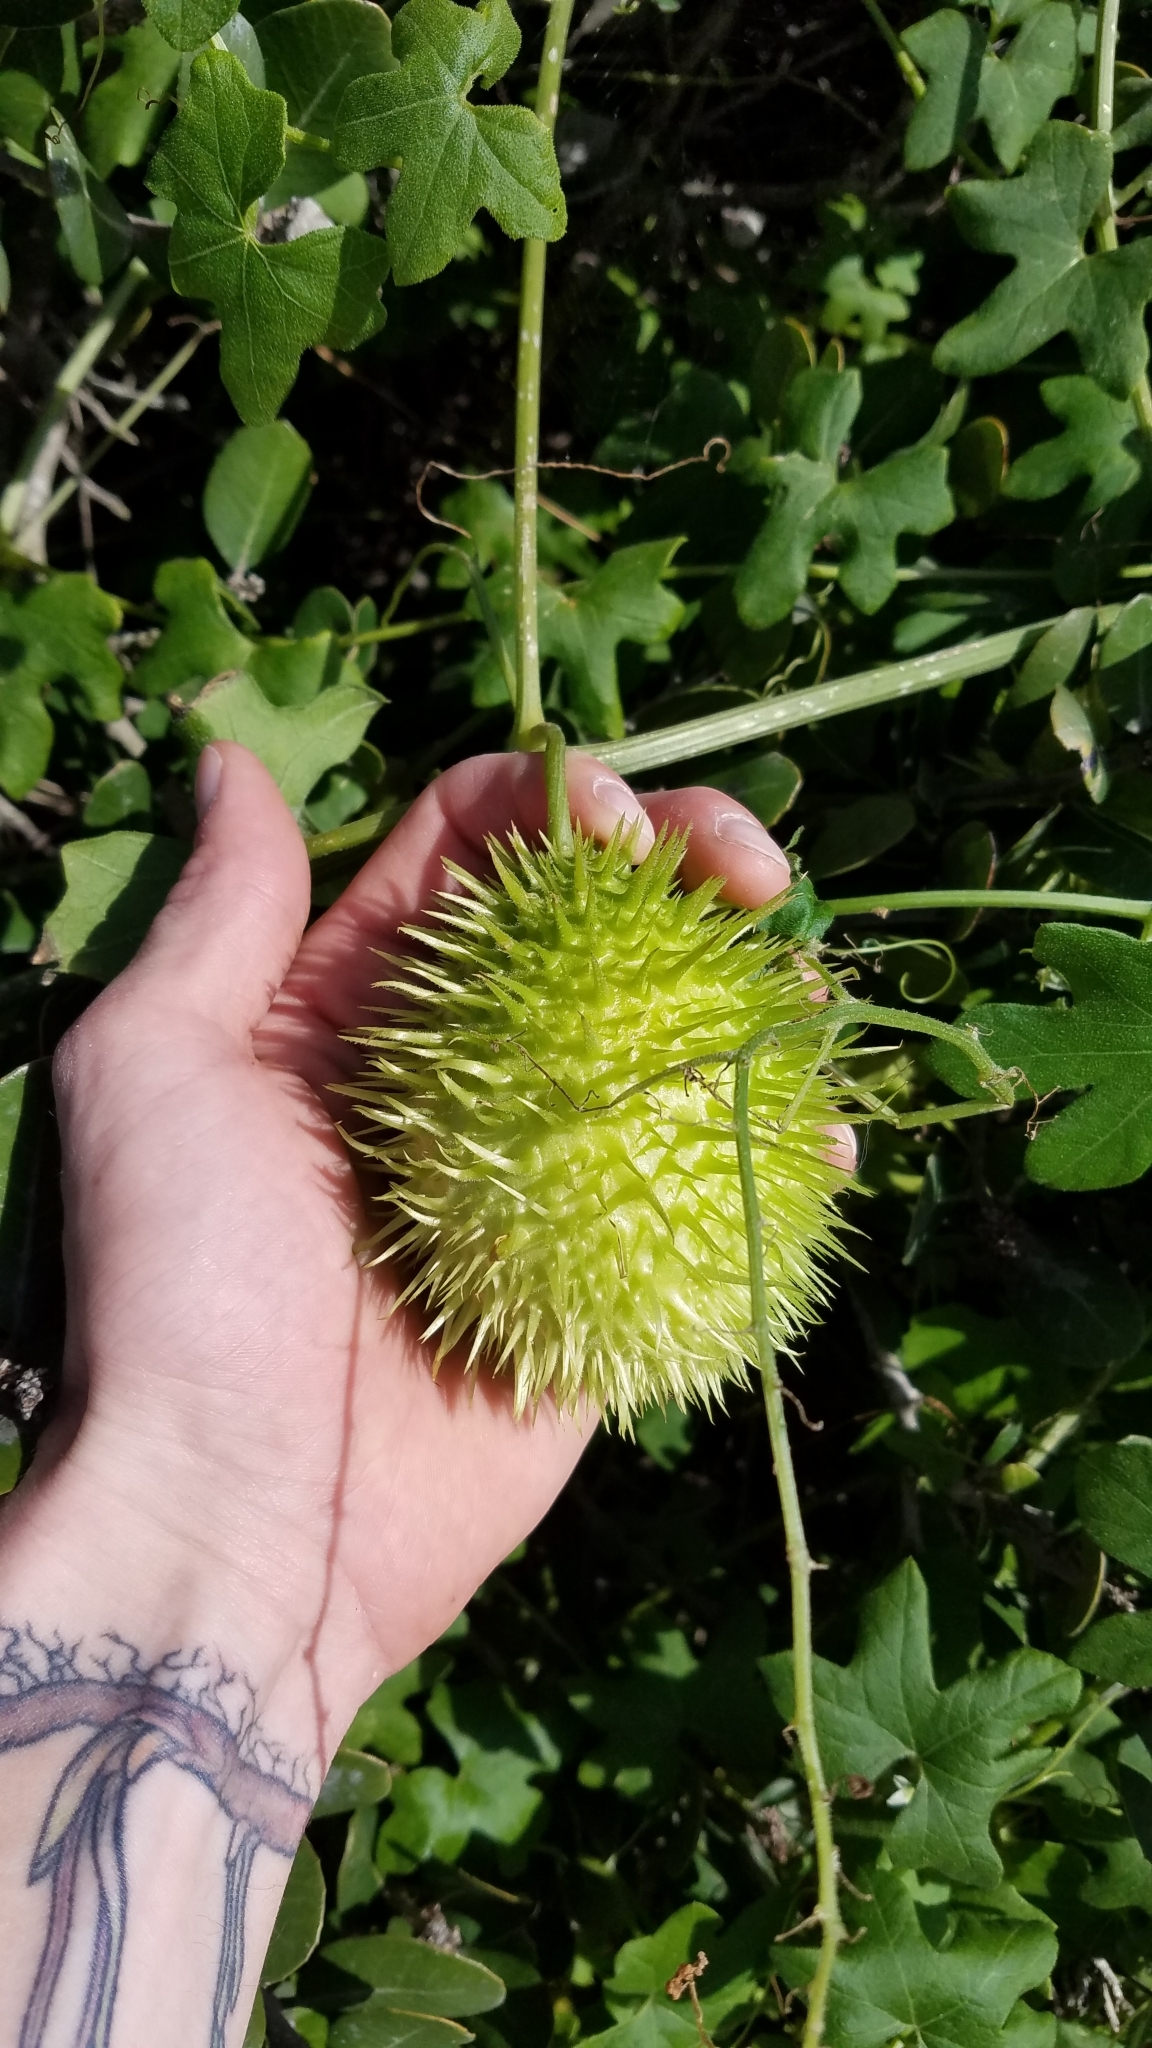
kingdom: Plantae
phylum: Tracheophyta
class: Magnoliopsida
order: Cucurbitales
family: Cucurbitaceae
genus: Marah
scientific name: Marah macrocarpa
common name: Cucamonga manroot
